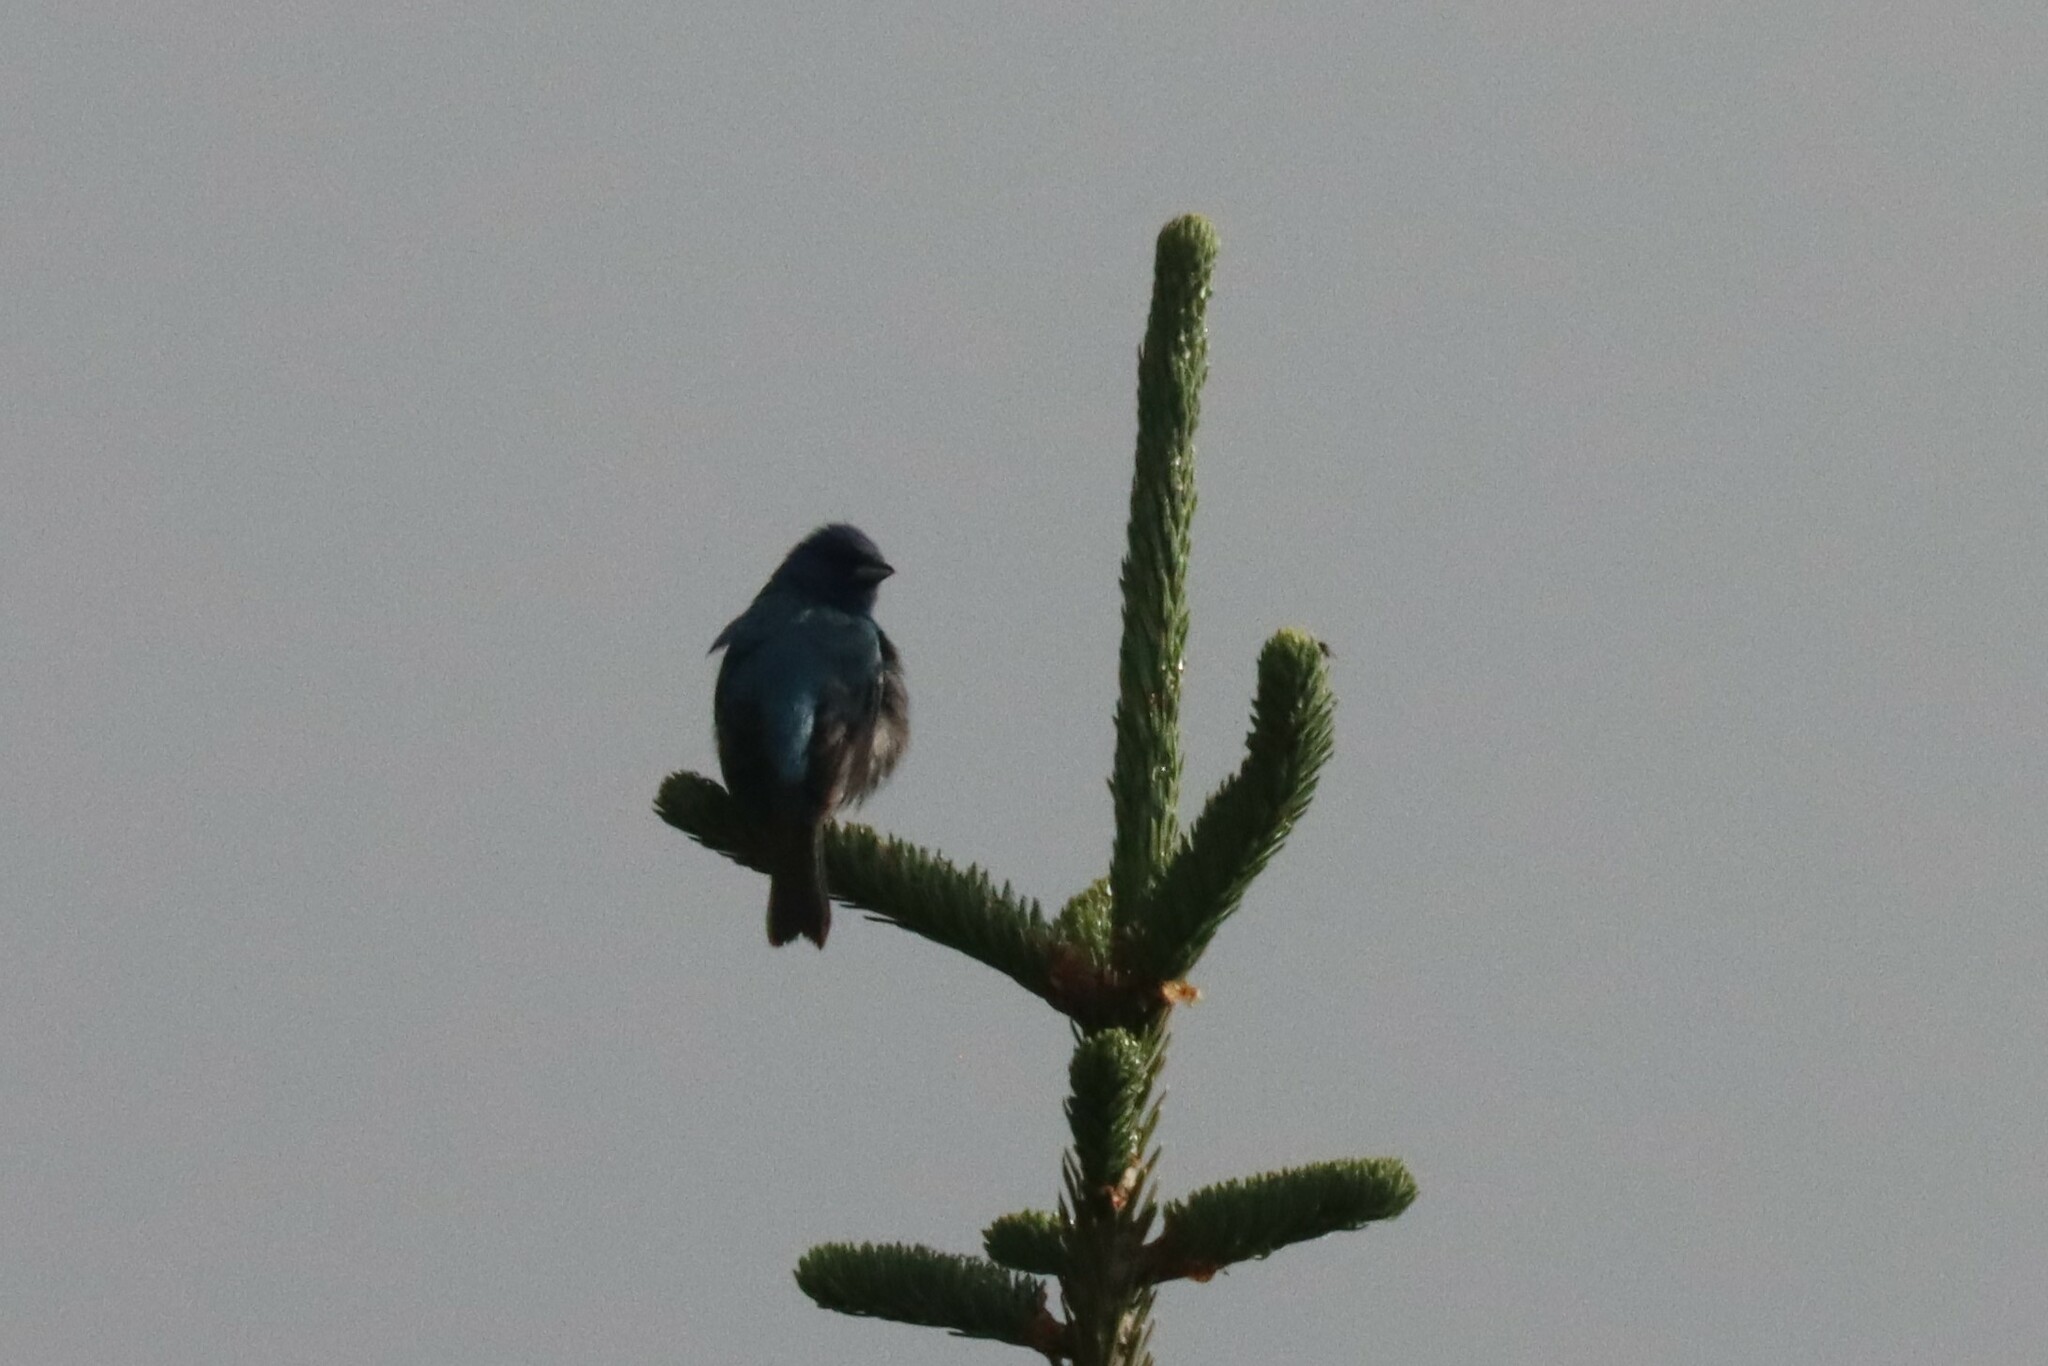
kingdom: Animalia
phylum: Chordata
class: Aves
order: Passeriformes
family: Cardinalidae
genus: Passerina
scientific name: Passerina cyanea
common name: Indigo bunting
